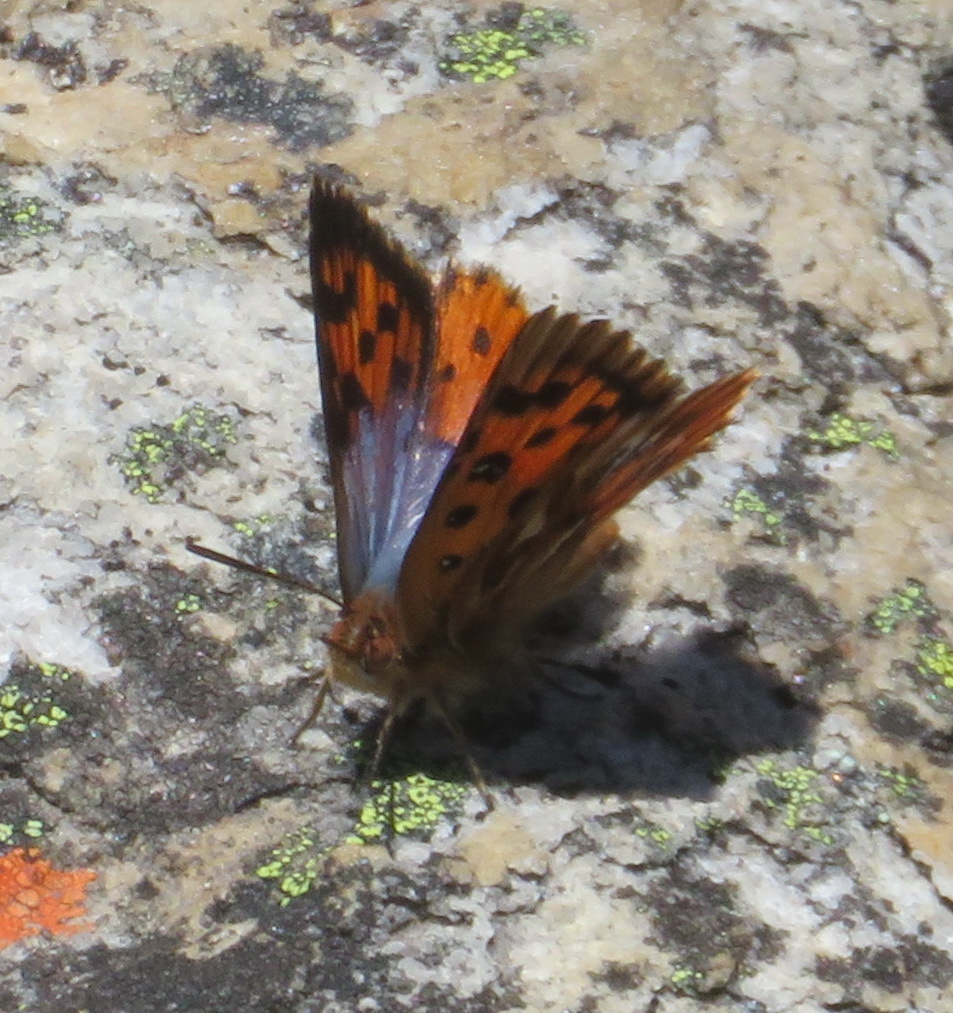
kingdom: Animalia
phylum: Arthropoda
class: Insecta
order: Lepidoptera
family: Lycaenidae
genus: Chrysoritis
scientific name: Chrysoritis
